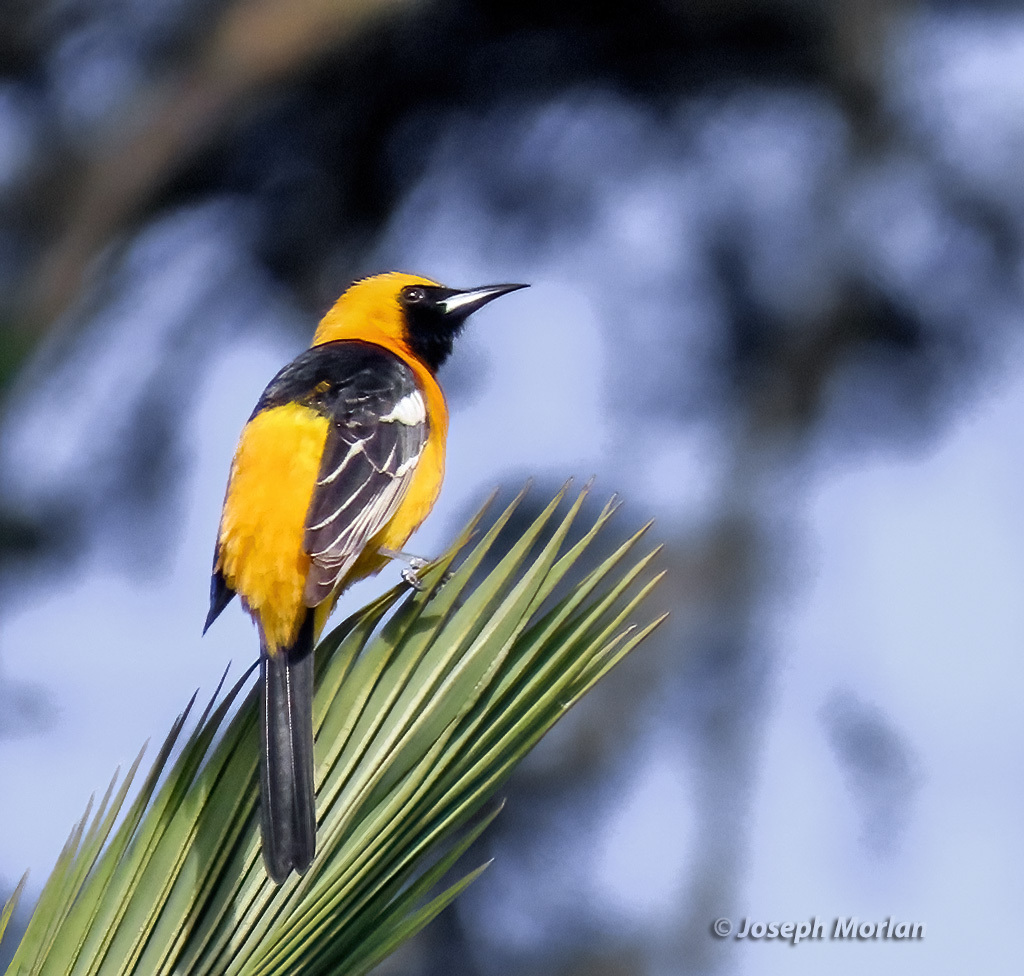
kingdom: Animalia
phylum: Chordata
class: Aves
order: Passeriformes
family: Icteridae
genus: Icterus
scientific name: Icterus cucullatus
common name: Hooded oriole
